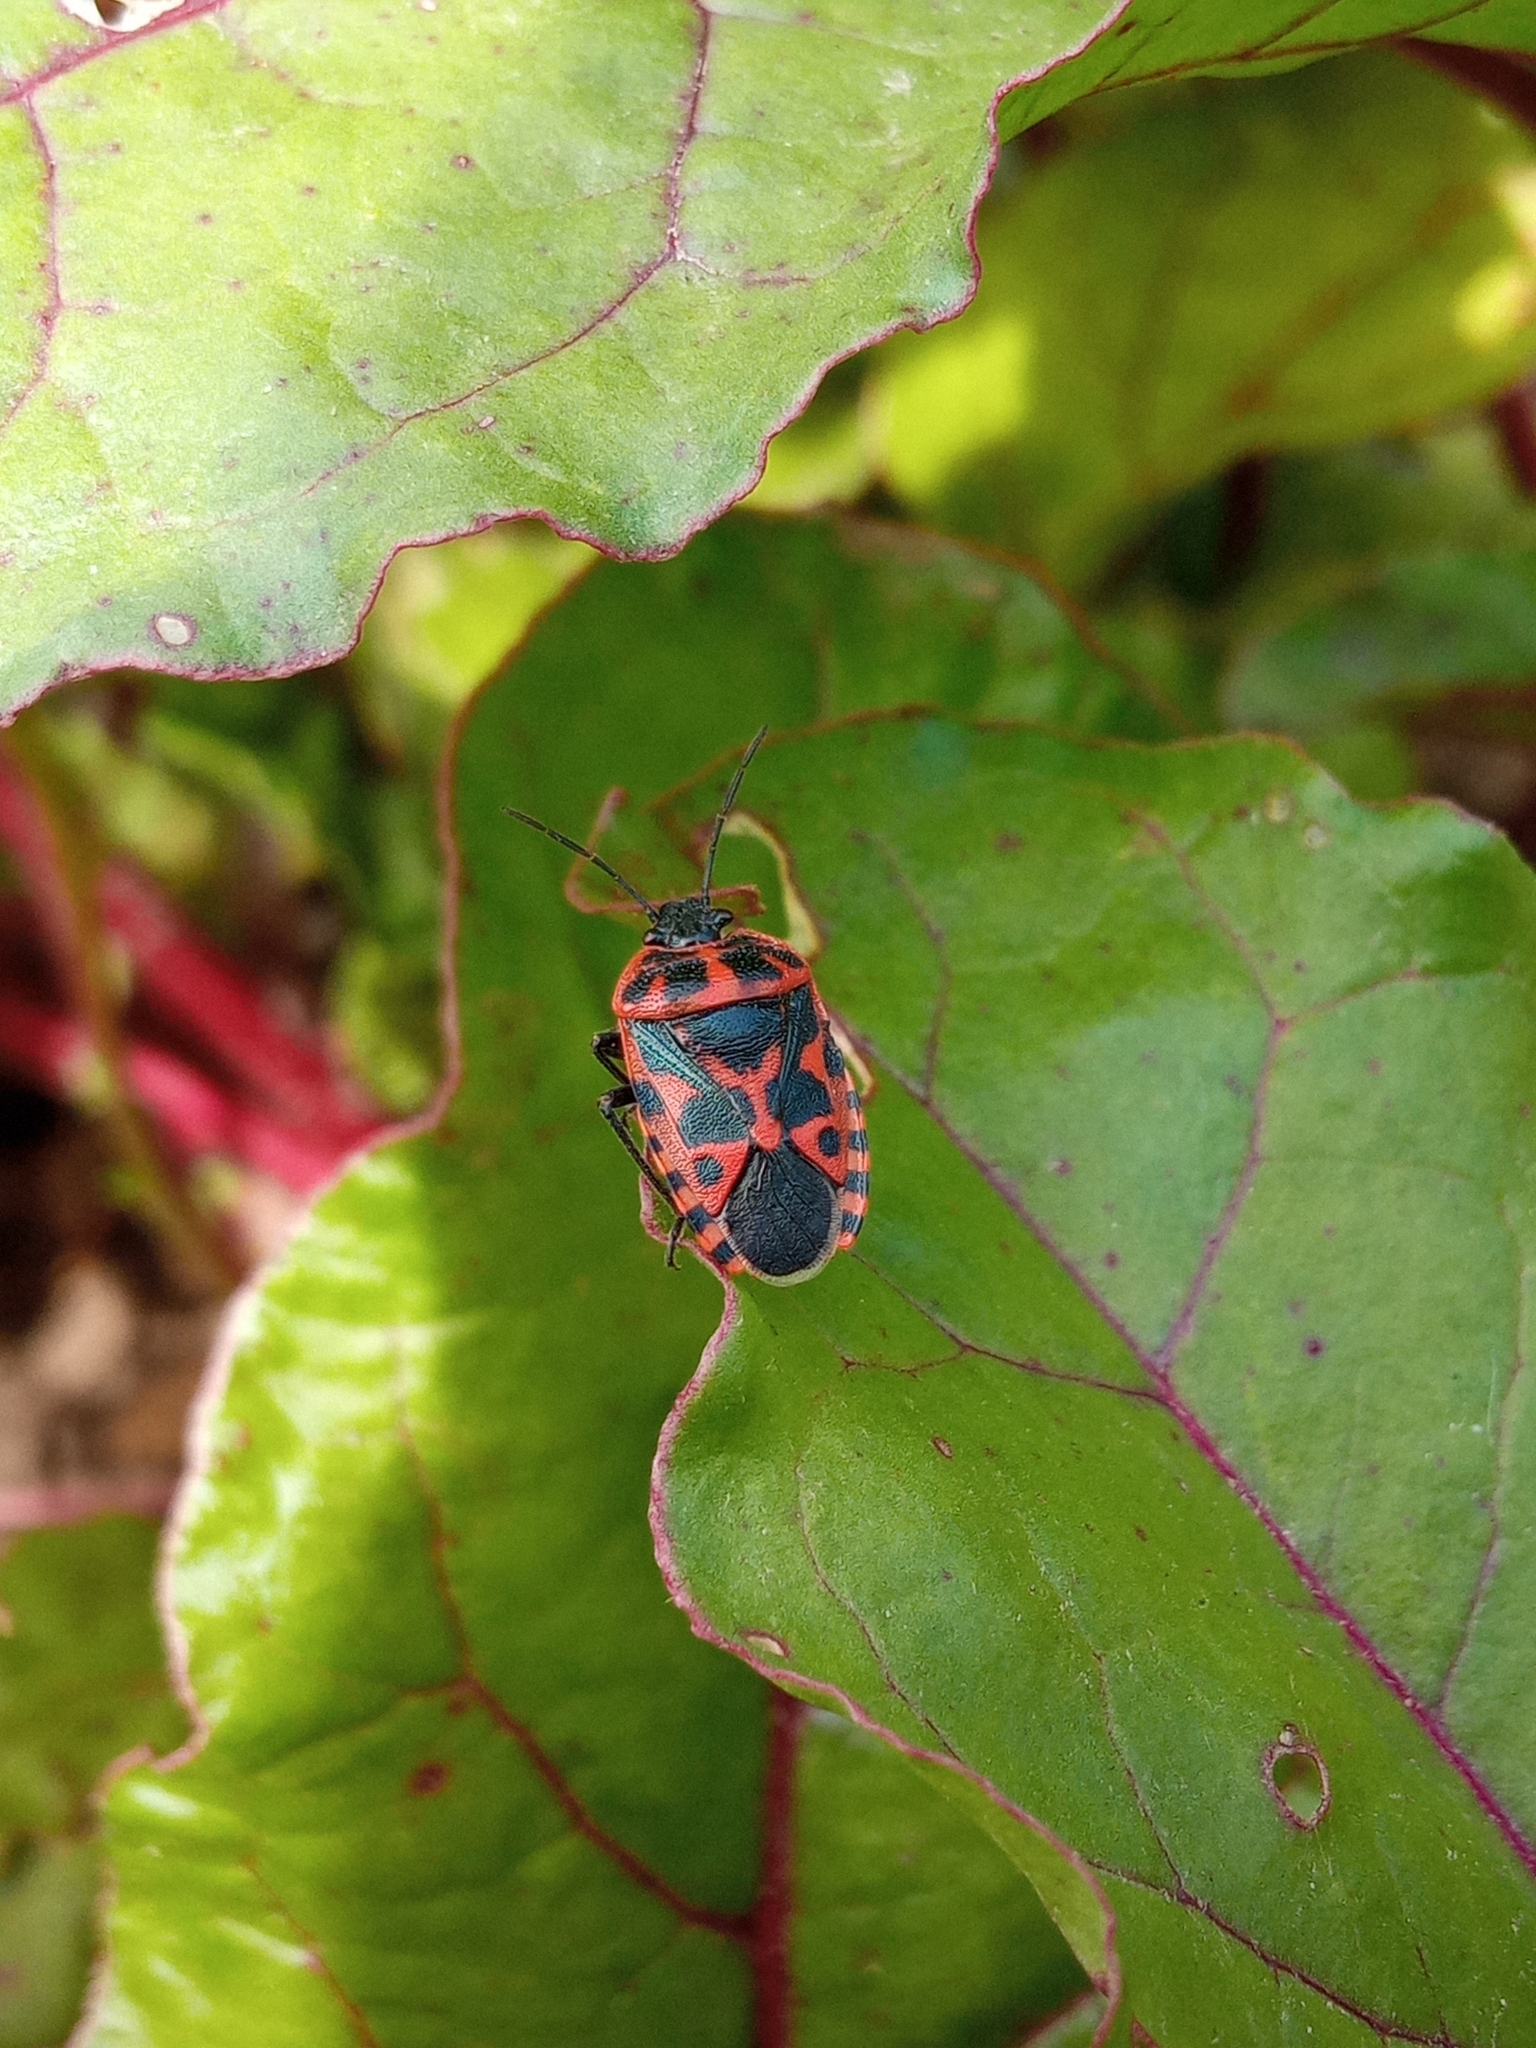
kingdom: Animalia
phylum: Arthropoda
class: Insecta
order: Hemiptera
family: Pentatomidae
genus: Eurydema
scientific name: Eurydema ventralis
